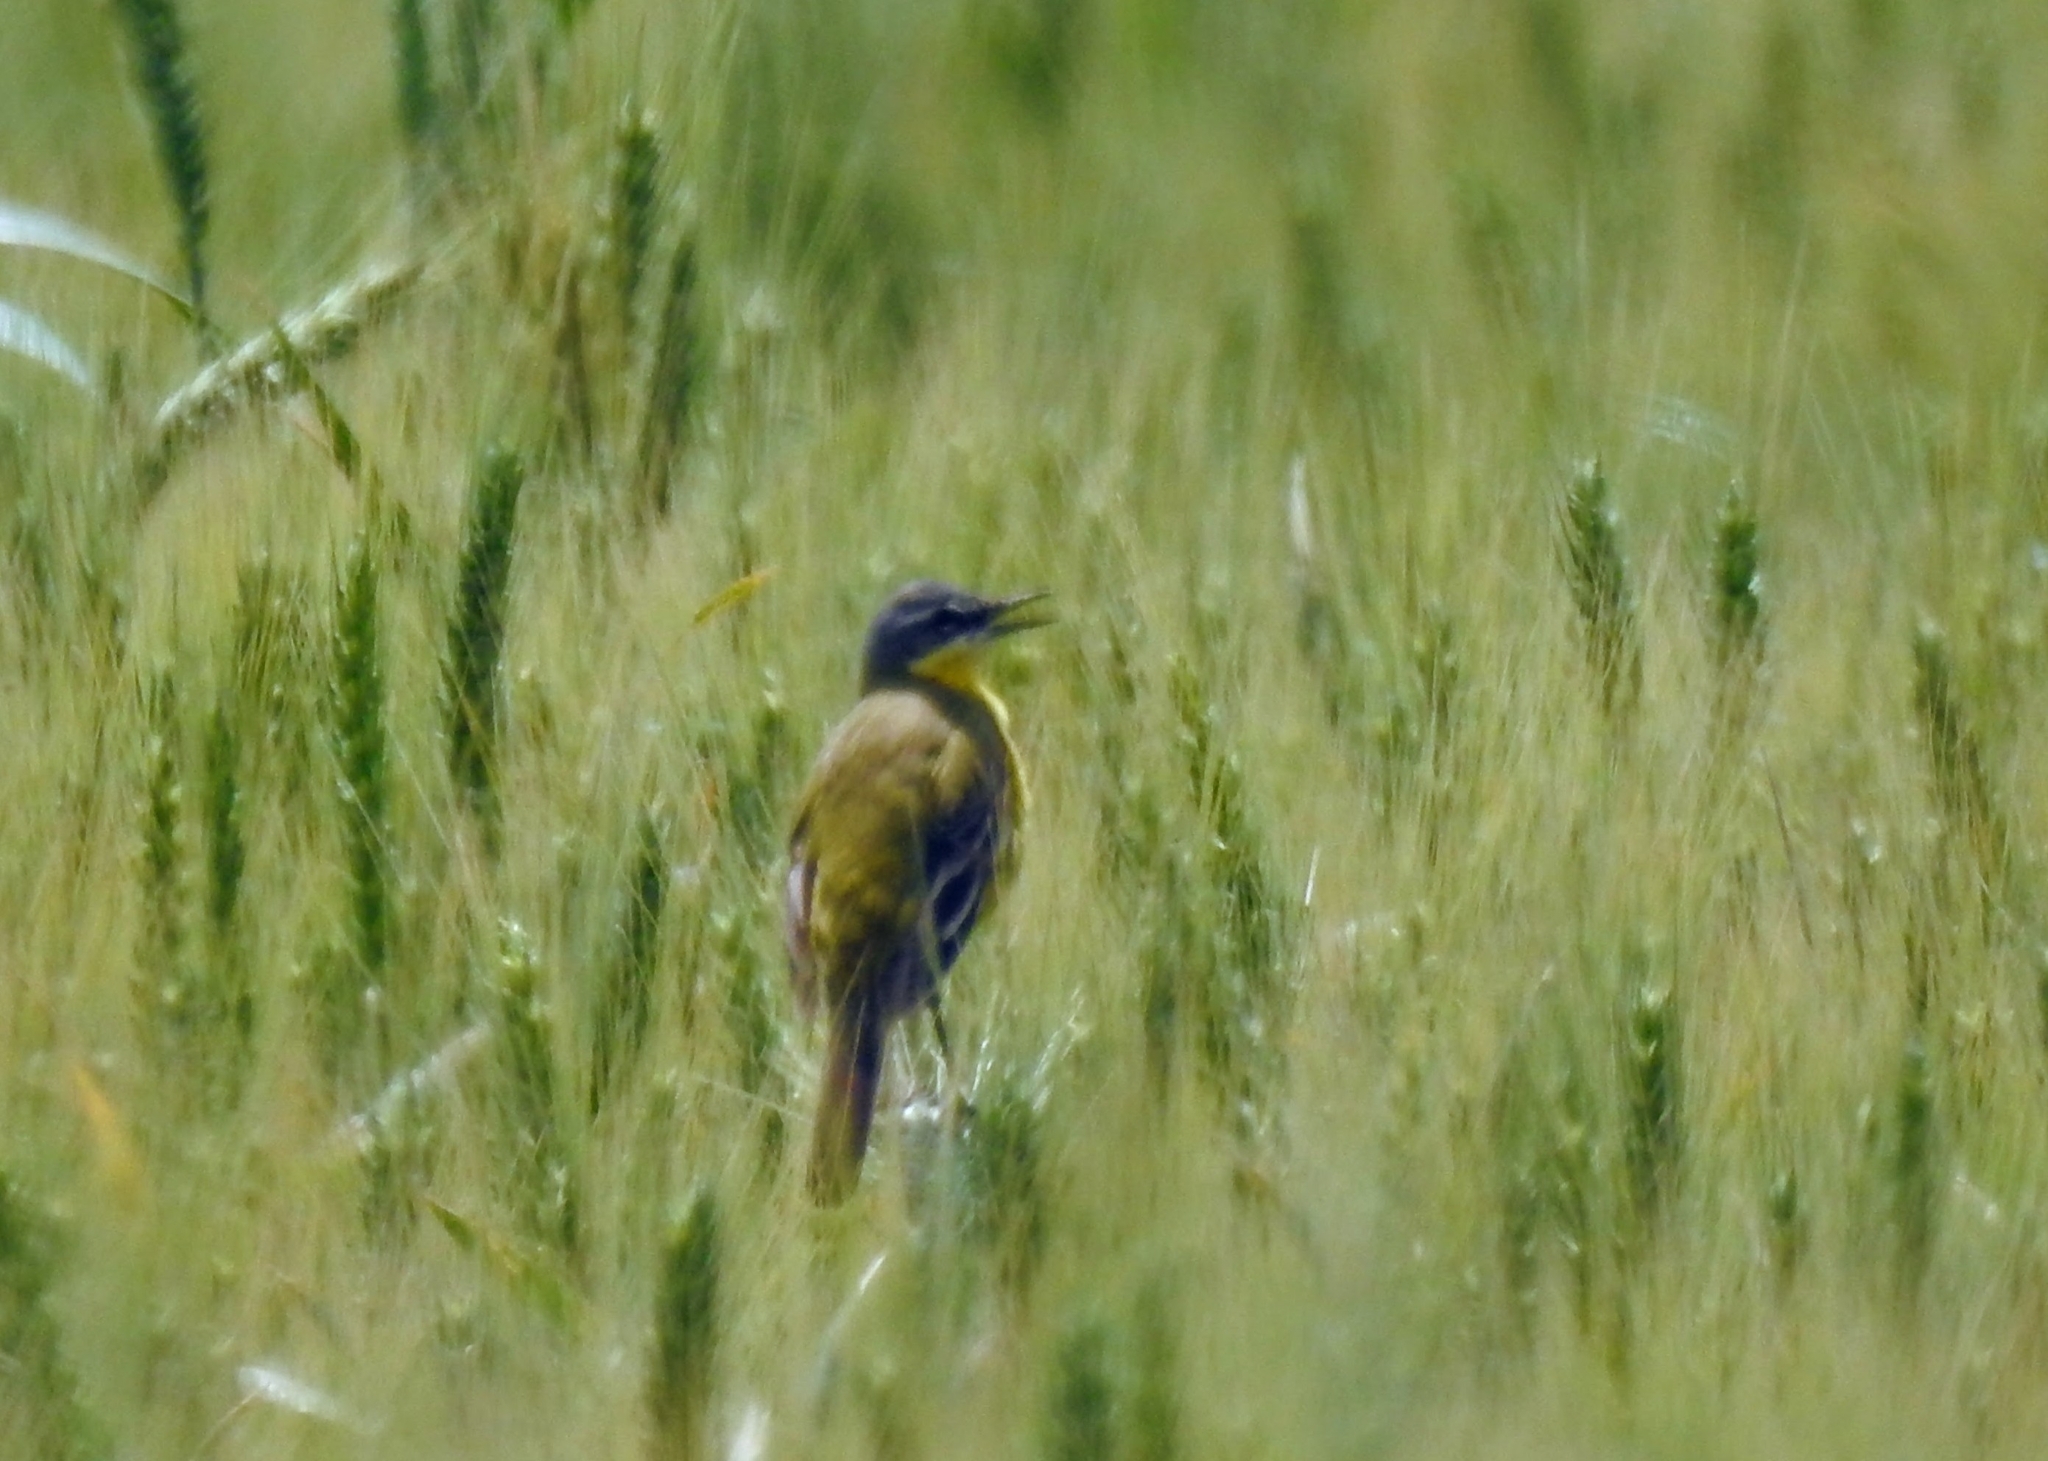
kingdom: Animalia
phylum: Chordata
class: Aves
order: Passeriformes
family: Motacillidae
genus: Motacilla
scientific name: Motacilla flava
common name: Western yellow wagtail
